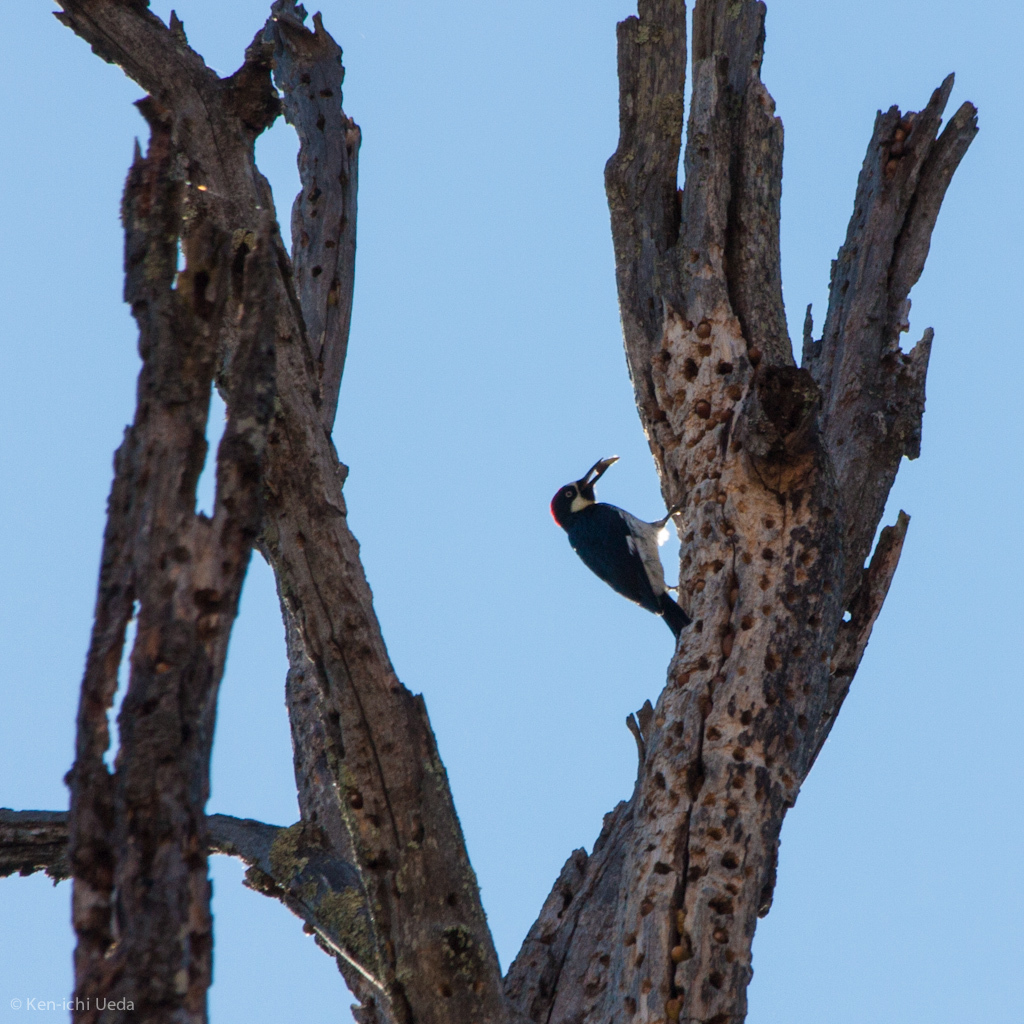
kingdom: Animalia
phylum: Chordata
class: Aves
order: Piciformes
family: Picidae
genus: Melanerpes
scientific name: Melanerpes formicivorus
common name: Acorn woodpecker
